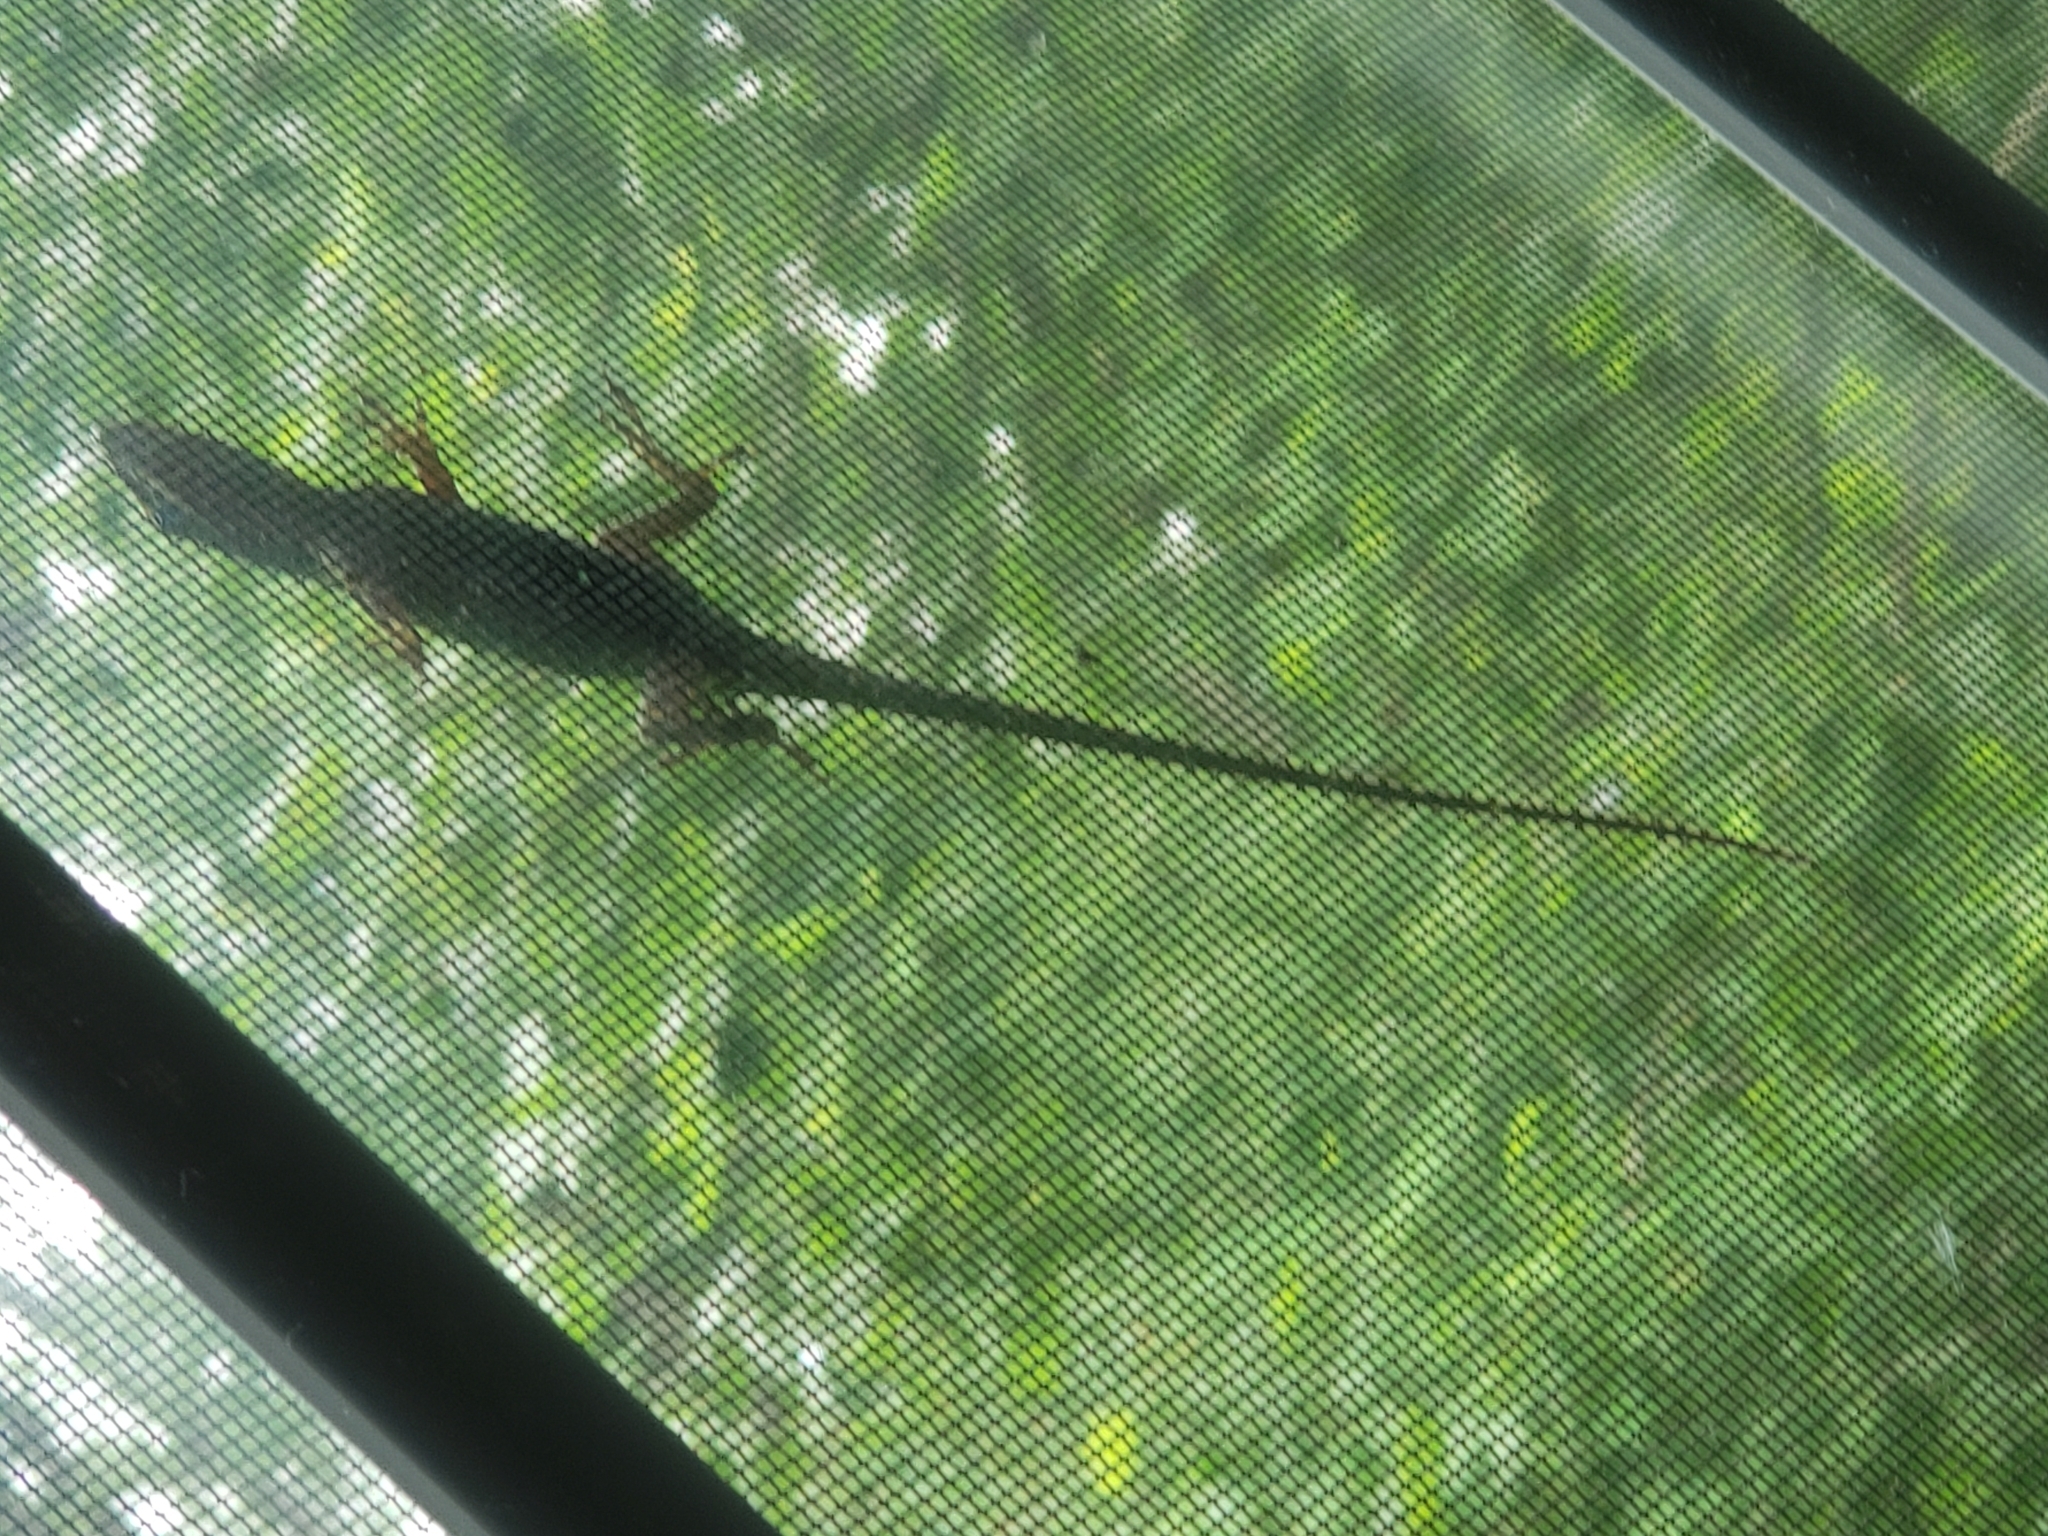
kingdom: Animalia
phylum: Chordata
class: Squamata
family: Dactyloidae
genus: Anolis
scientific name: Anolis carolinensis
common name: Green anole
